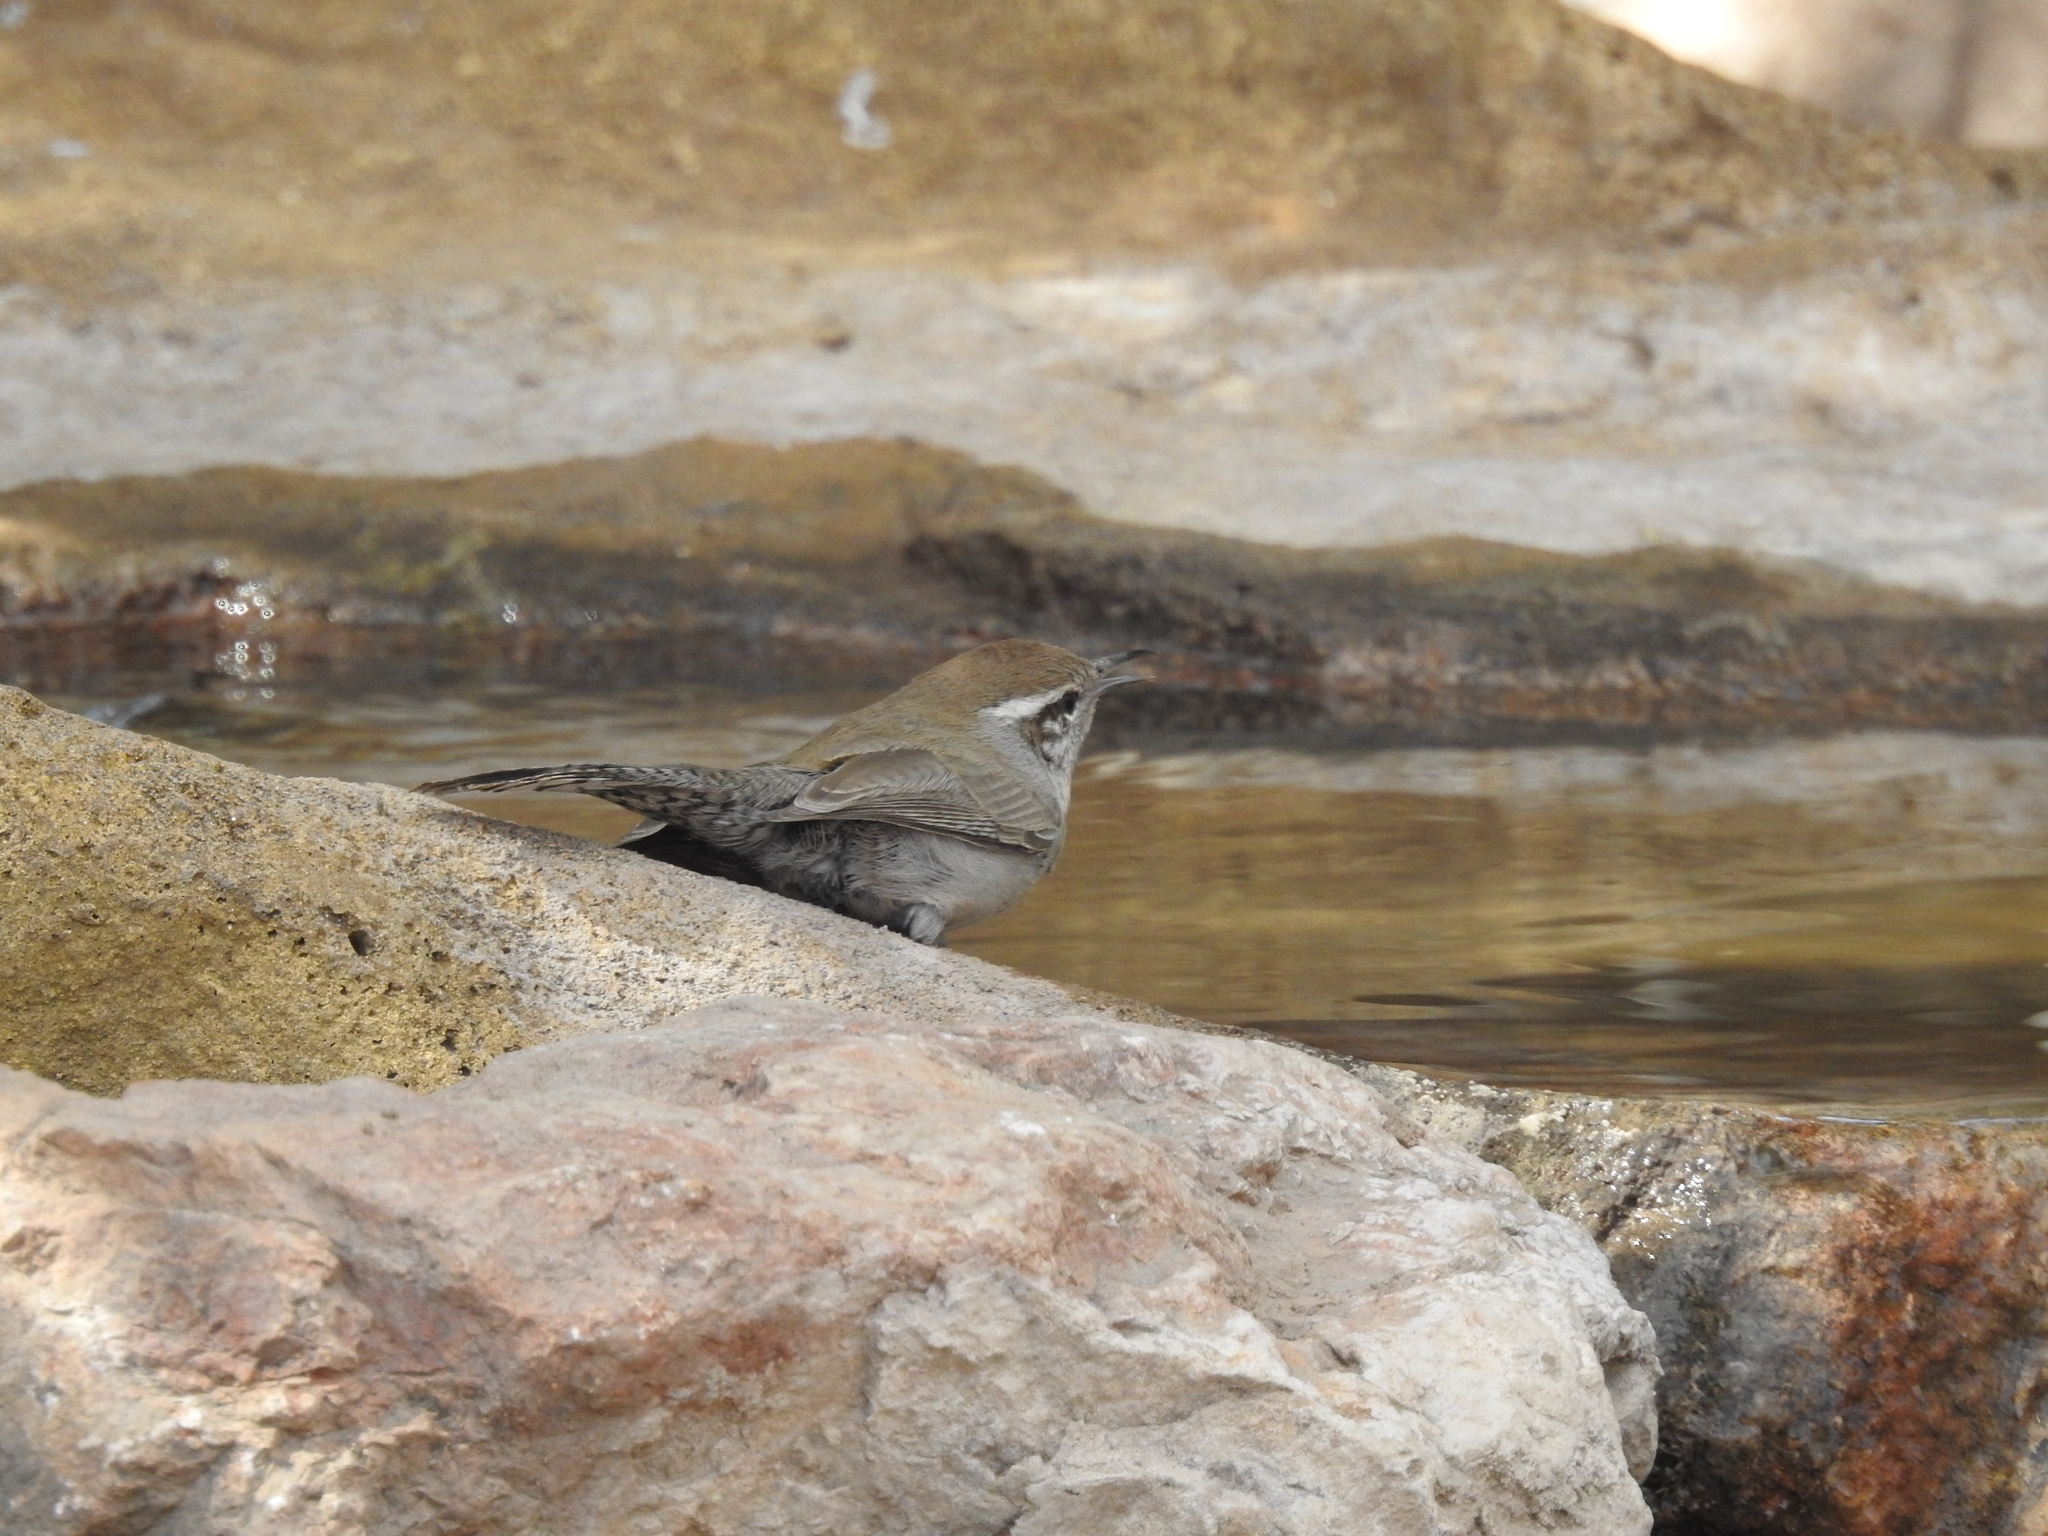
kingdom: Animalia
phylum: Chordata
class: Aves
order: Passeriformes
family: Troglodytidae
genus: Thryomanes
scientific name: Thryomanes bewickii
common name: Bewick's wren
